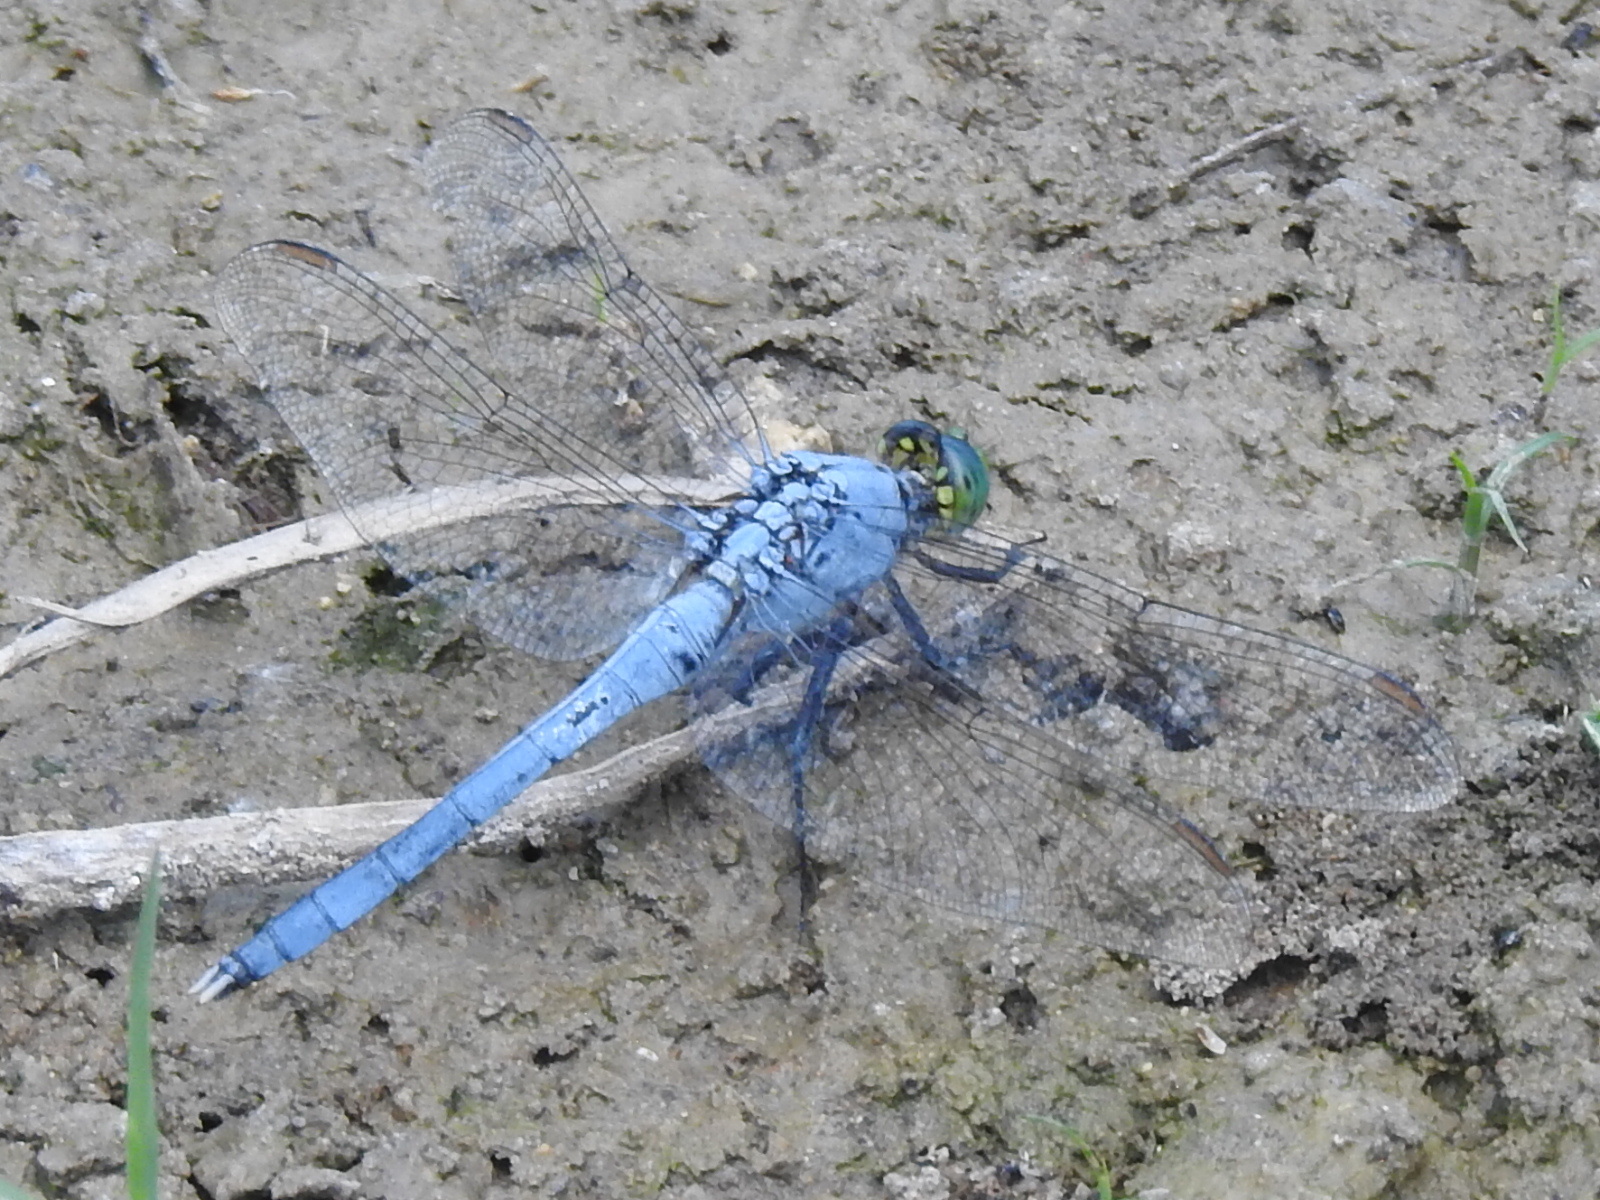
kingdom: Animalia
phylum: Arthropoda
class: Insecta
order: Odonata
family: Libellulidae
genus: Erythemis
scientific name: Erythemis simplicicollis
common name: Eastern pondhawk
